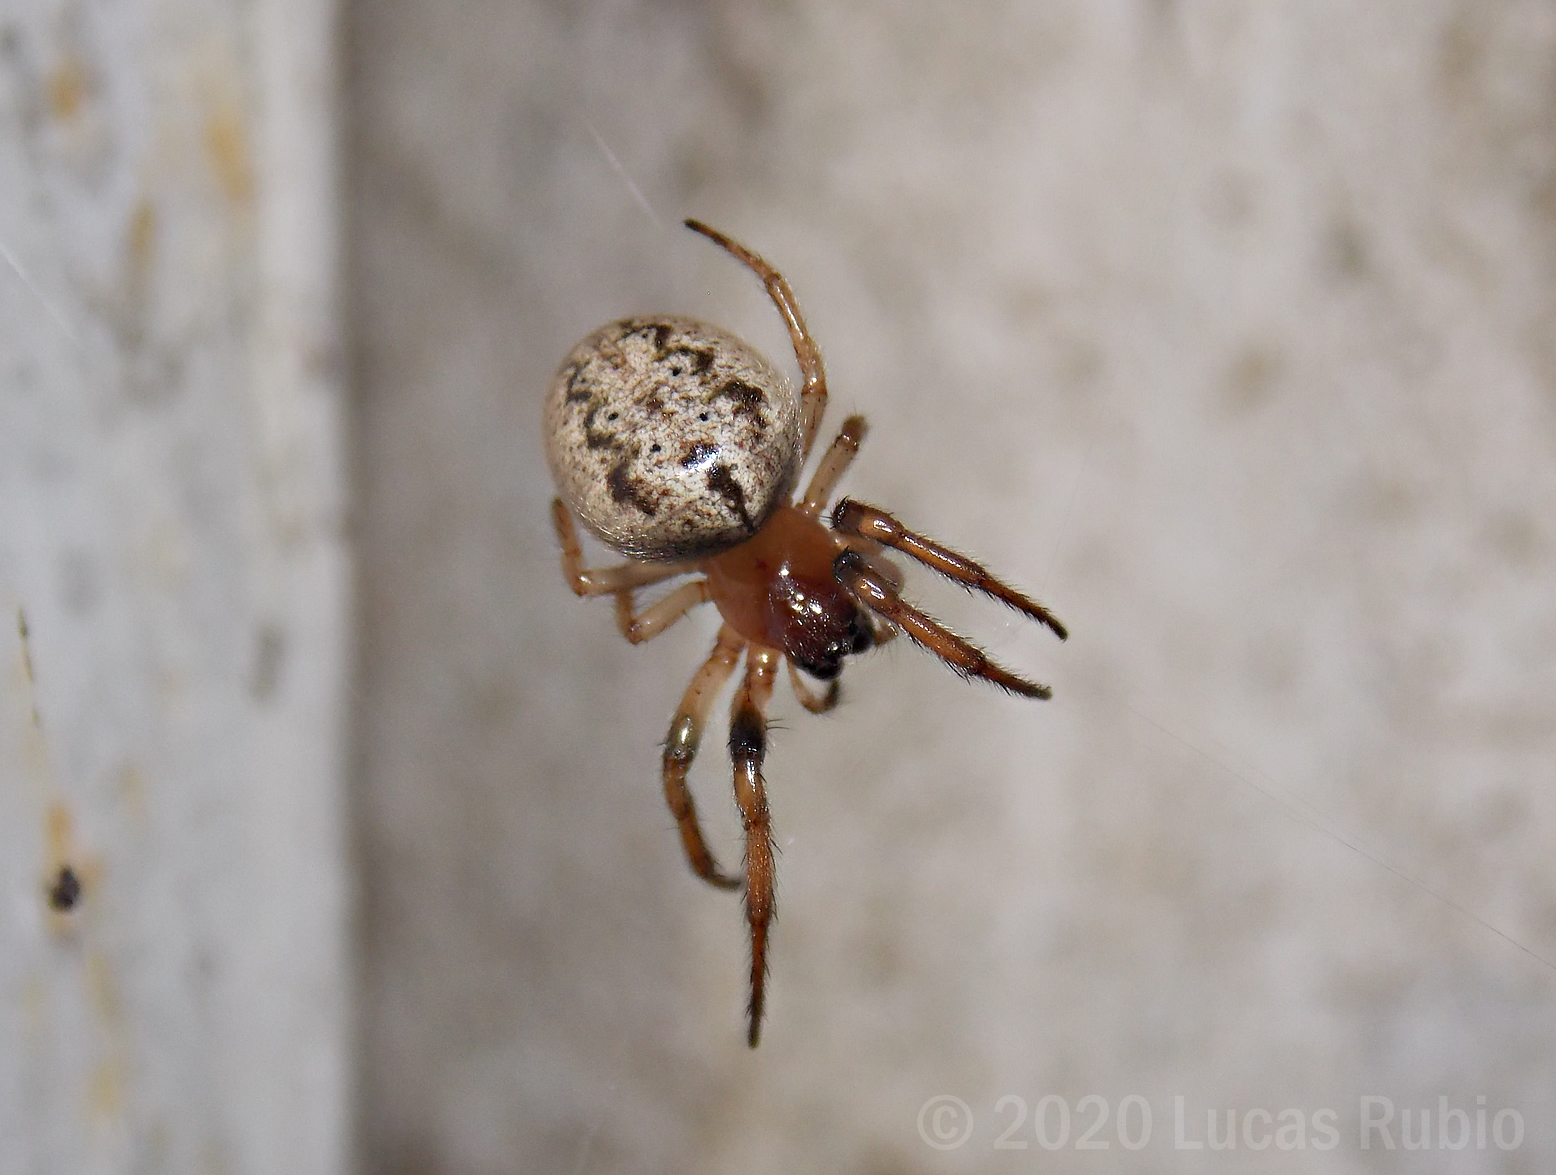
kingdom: Animalia
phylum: Arthropoda
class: Arachnida
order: Araneae
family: Araneidae
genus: Metazygia
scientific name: Metazygia
